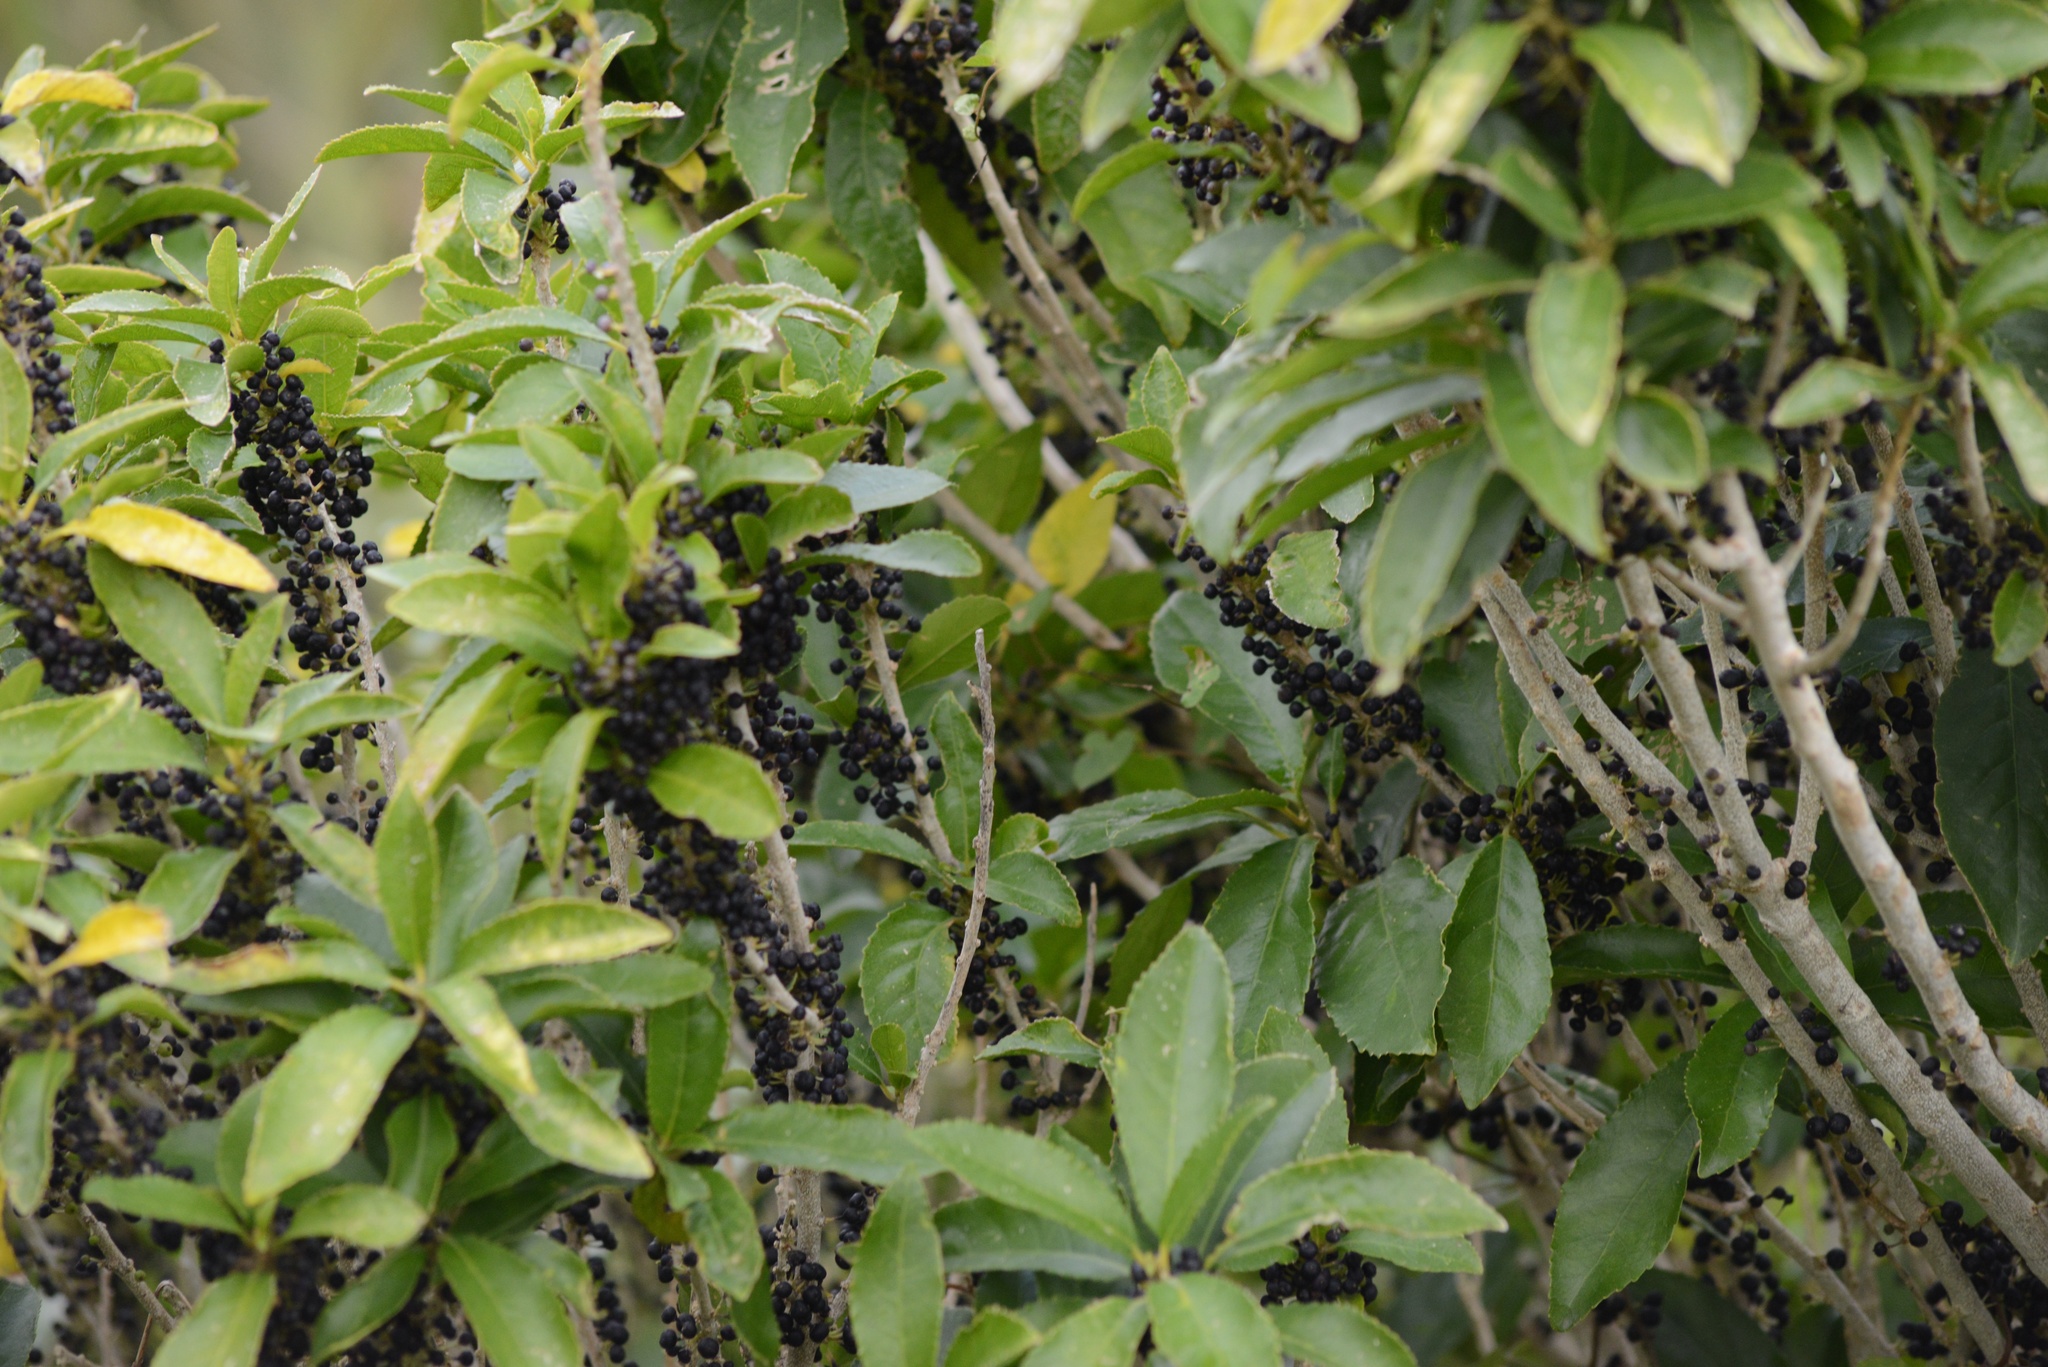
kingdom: Plantae
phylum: Tracheophyta
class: Magnoliopsida
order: Malpighiales
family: Violaceae
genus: Melicytus
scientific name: Melicytus ramiflorus
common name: Mahoe
